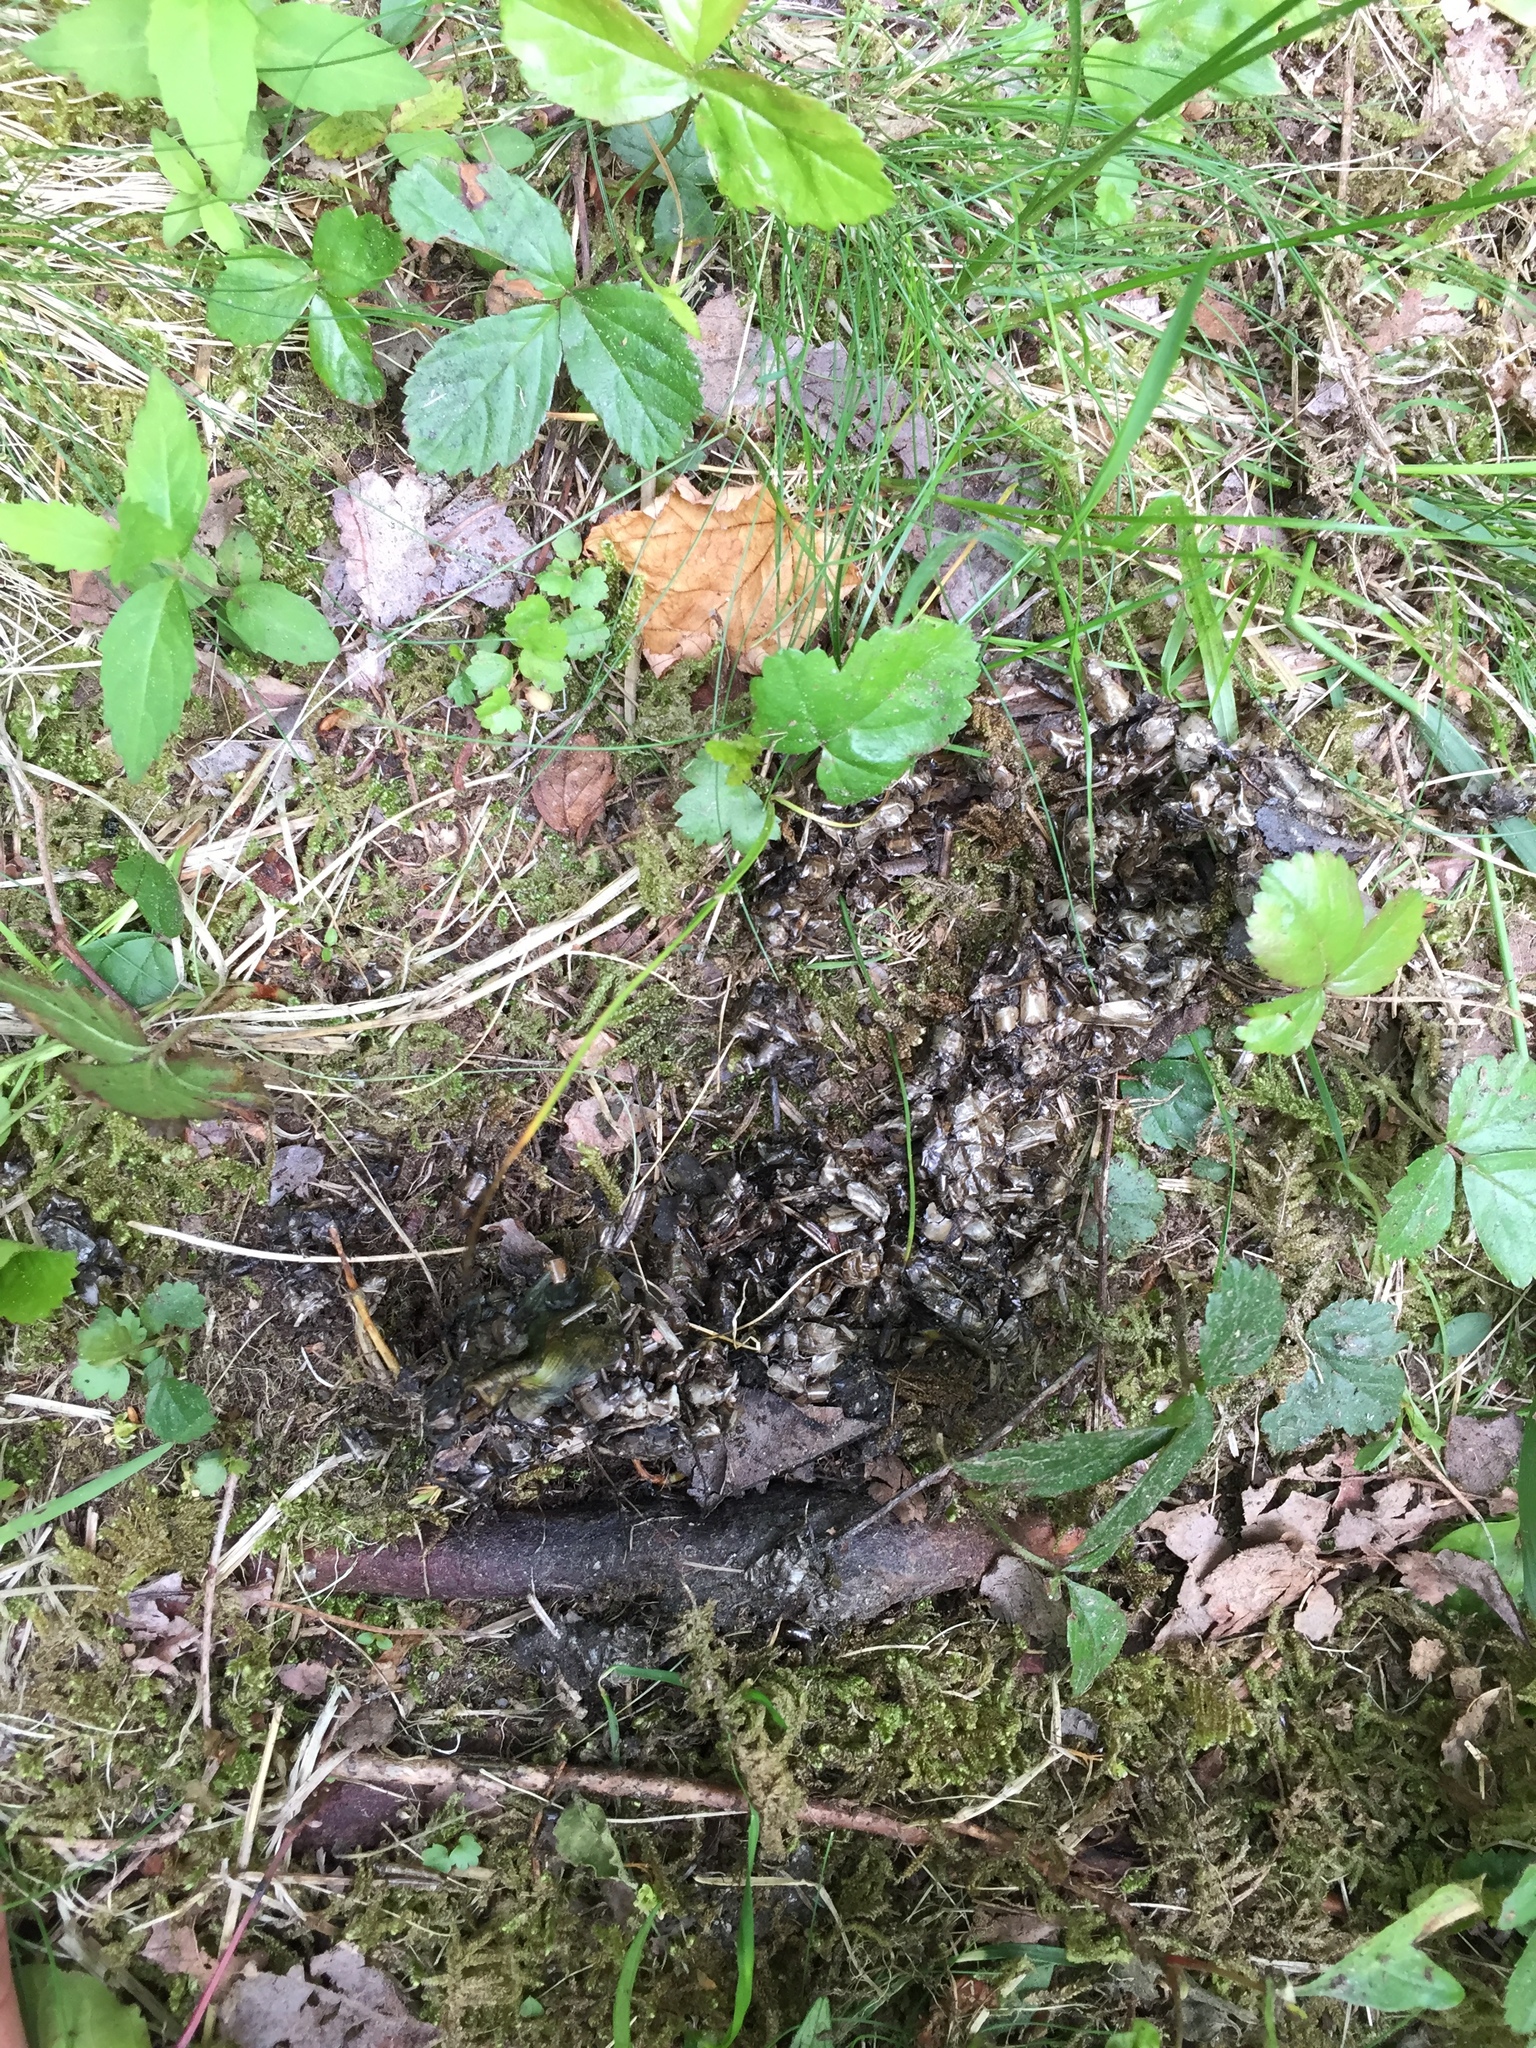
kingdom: Animalia
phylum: Chordata
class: Mammalia
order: Carnivora
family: Mustelidae
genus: Lontra
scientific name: Lontra canadensis
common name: North american river otter
